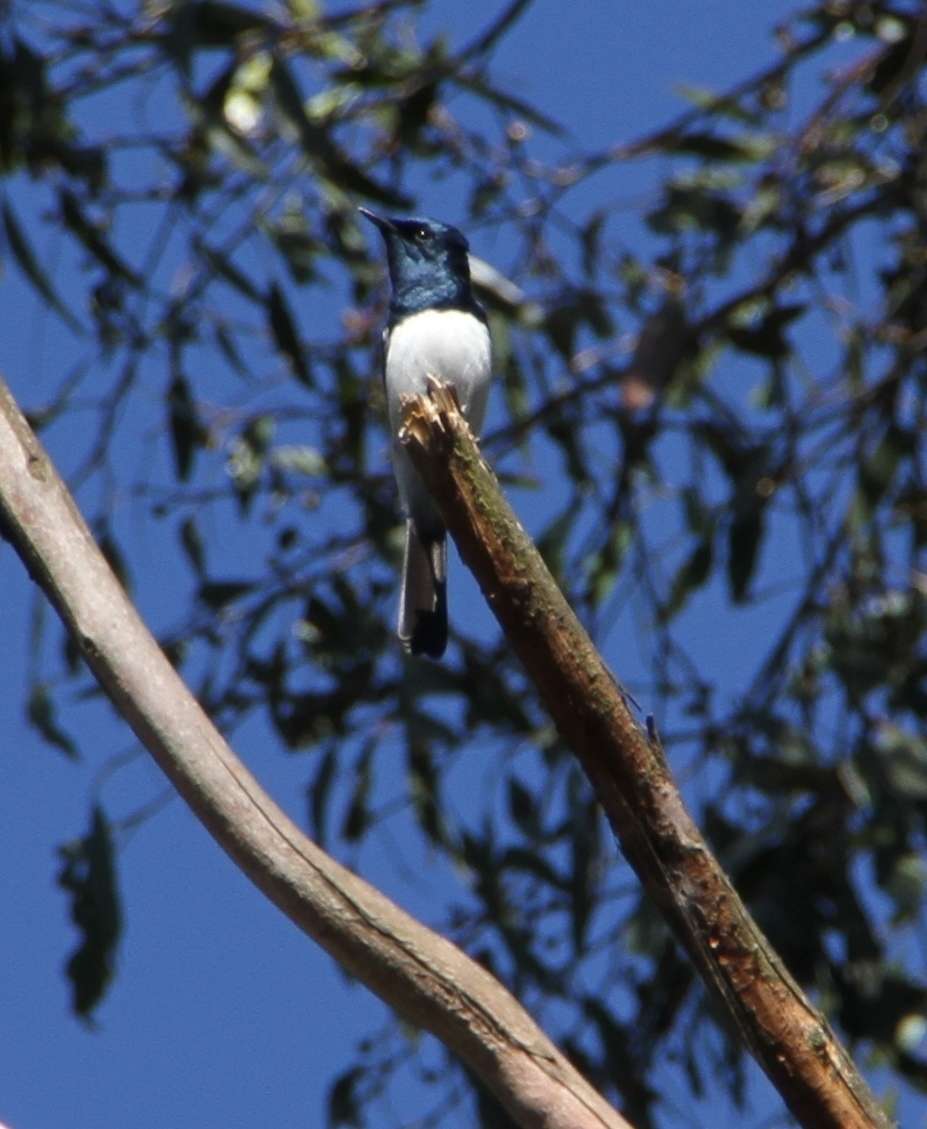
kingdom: Animalia
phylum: Chordata
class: Aves
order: Passeriformes
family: Monarchidae
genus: Myiagra
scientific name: Myiagra cyanoleuca
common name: Satin flycatcher
